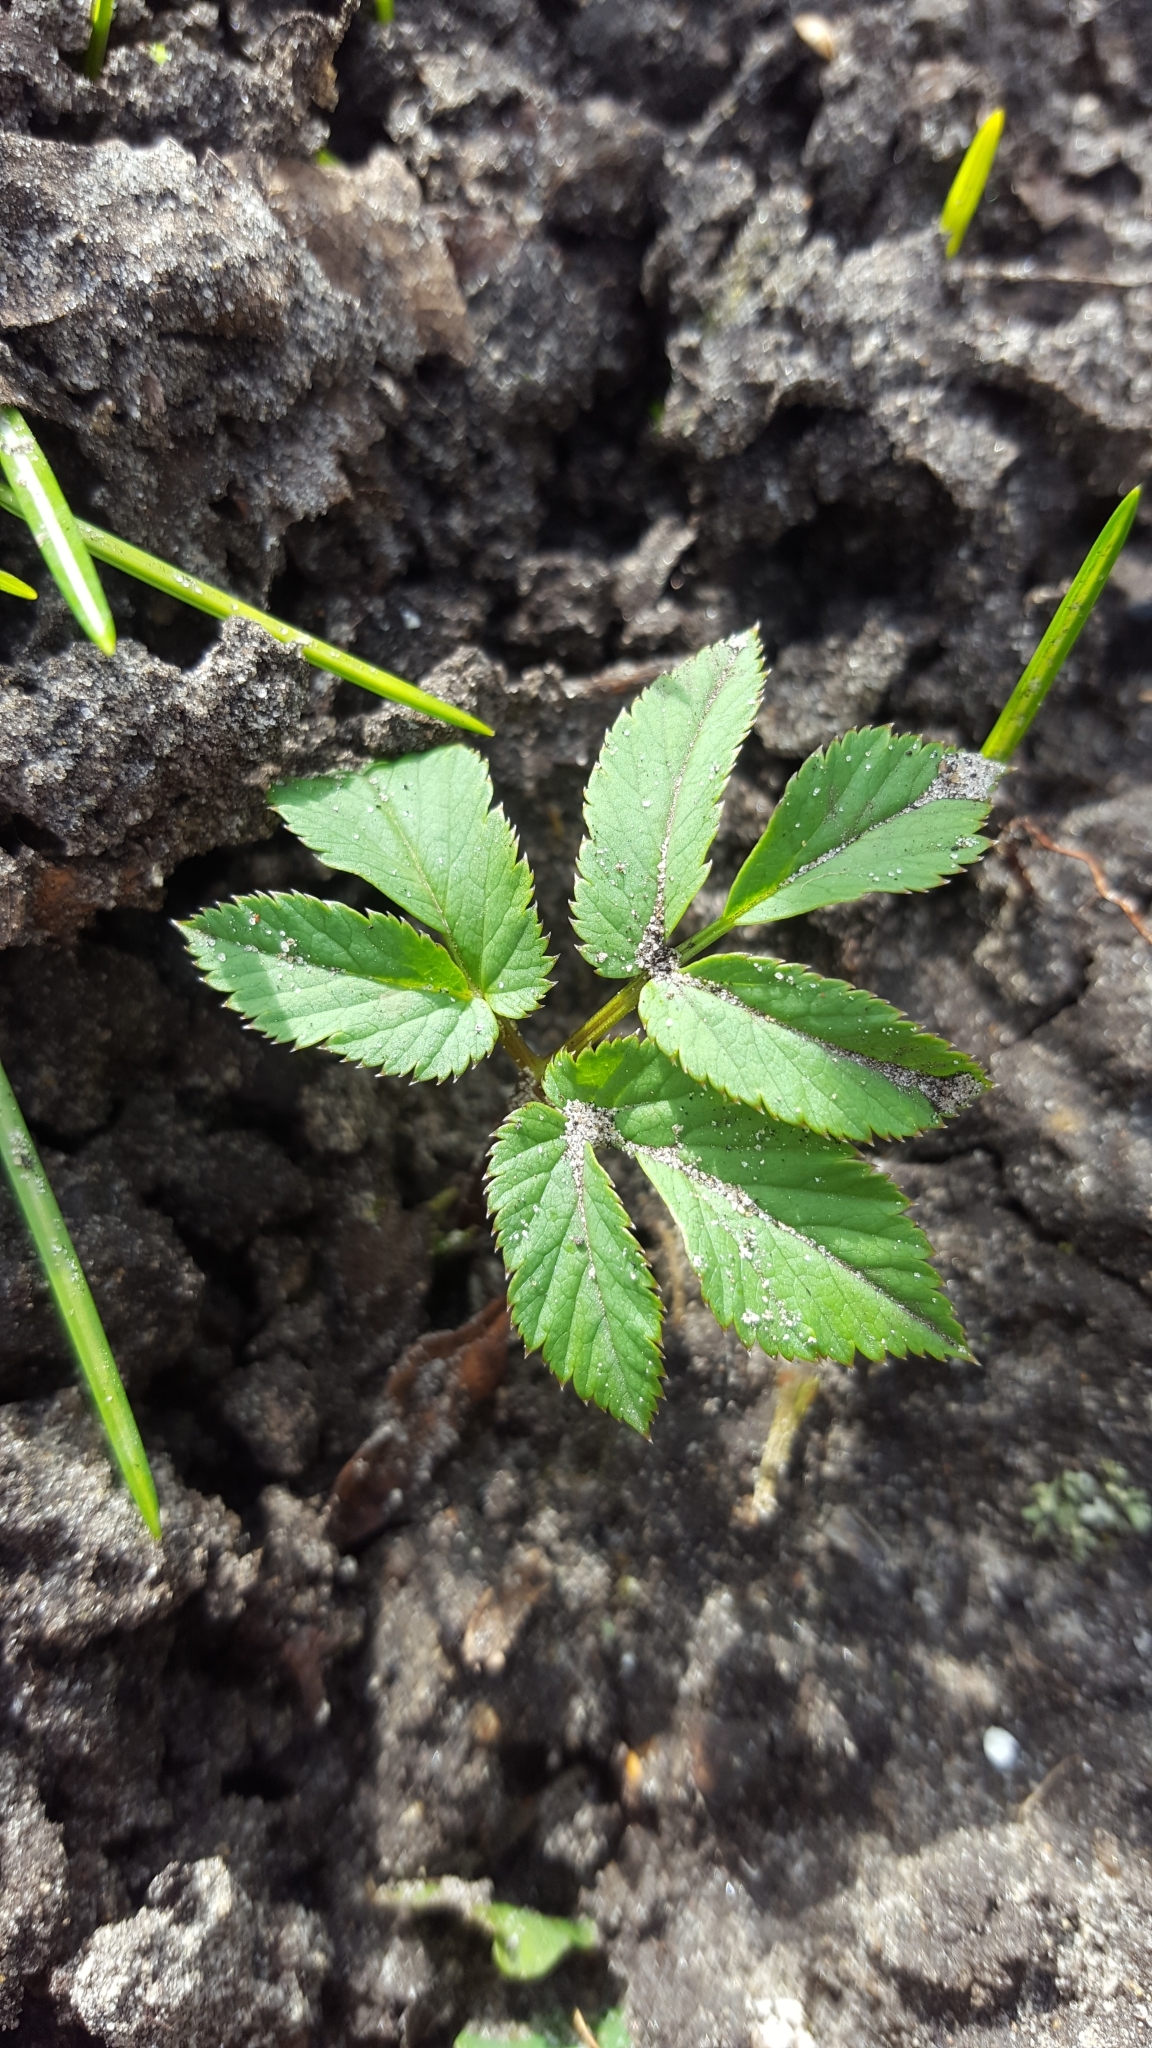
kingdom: Plantae
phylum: Tracheophyta
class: Magnoliopsida
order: Apiales
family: Apiaceae
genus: Aegopodium
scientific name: Aegopodium podagraria
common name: Ground-elder
